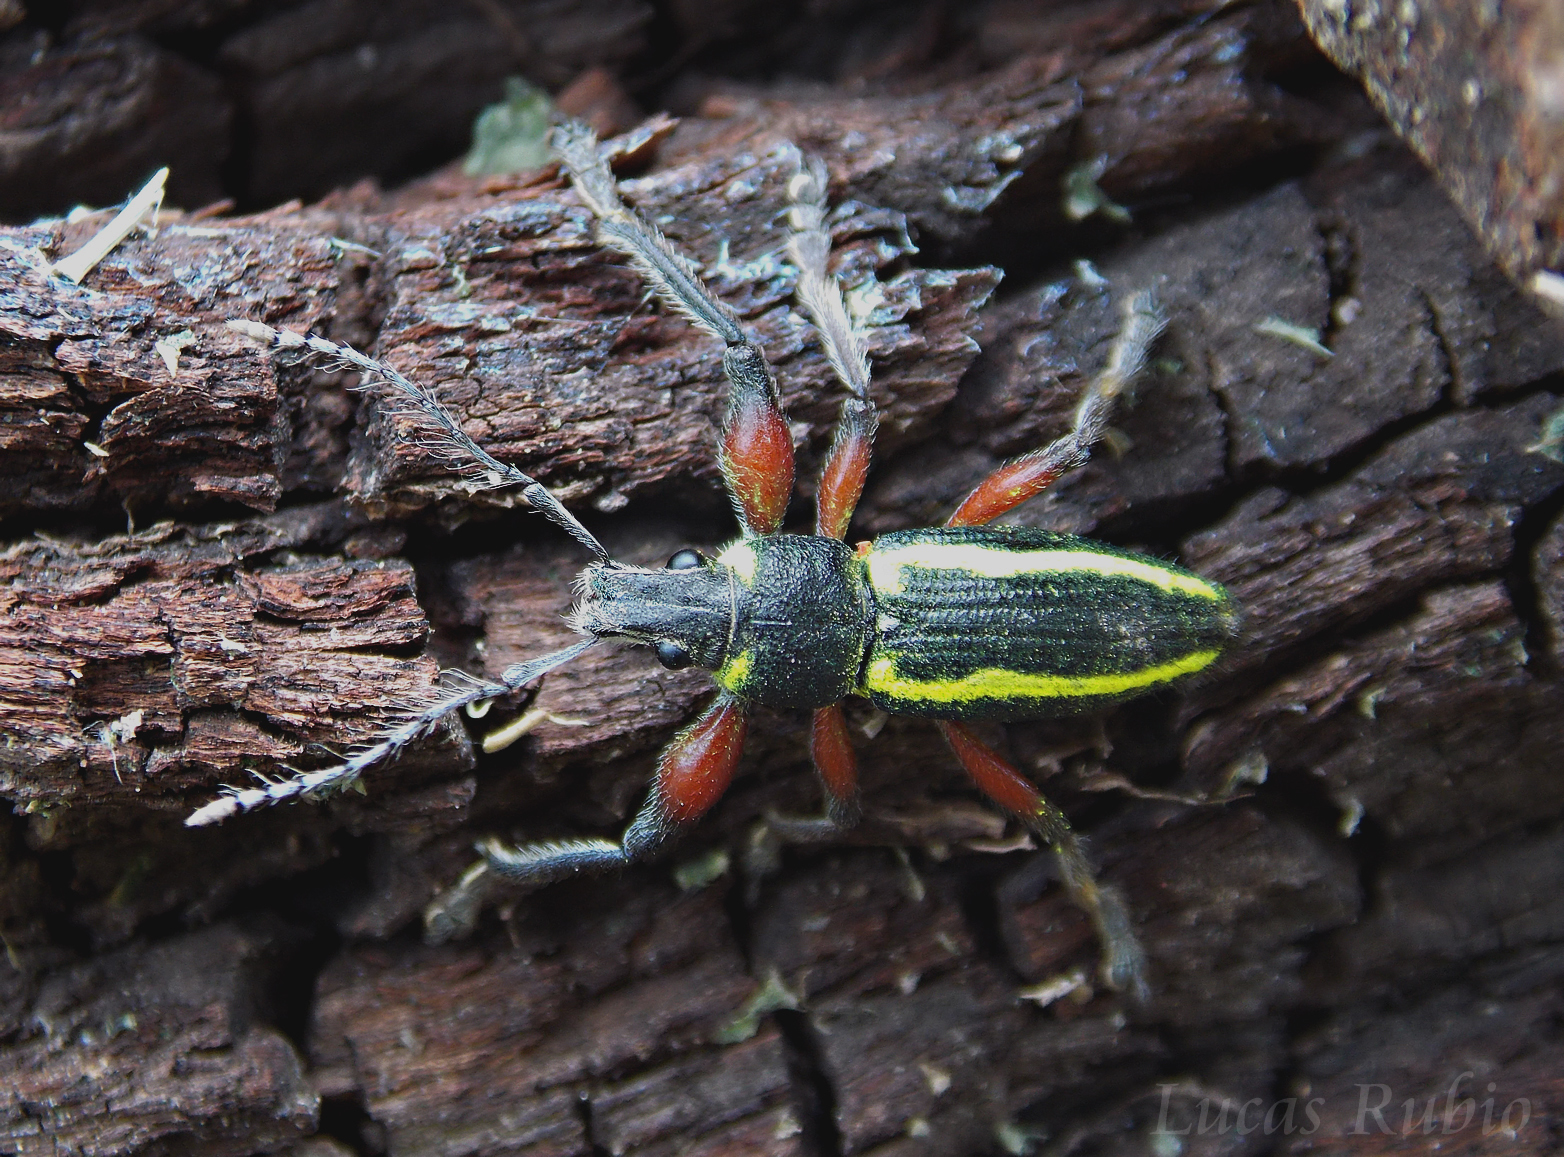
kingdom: Animalia
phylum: Arthropoda
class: Insecta
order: Coleoptera
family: Curculionidae
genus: Naupactus
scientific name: Naupactus sulphurifer
